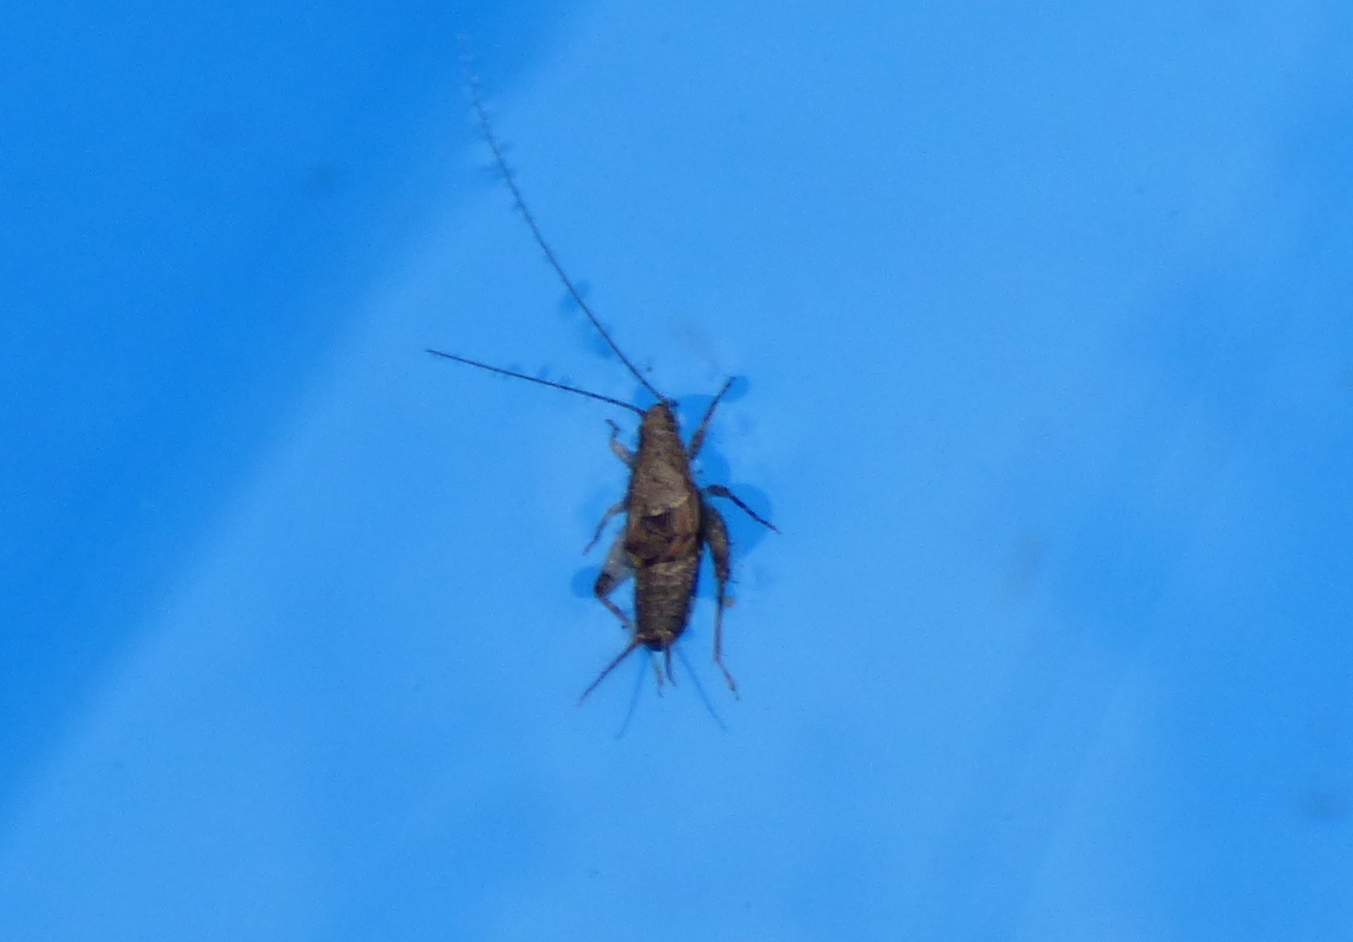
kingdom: Animalia
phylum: Arthropoda
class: Insecta
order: Orthoptera
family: Mogoplistidae
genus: Ornebius
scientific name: Ornebius alatus
